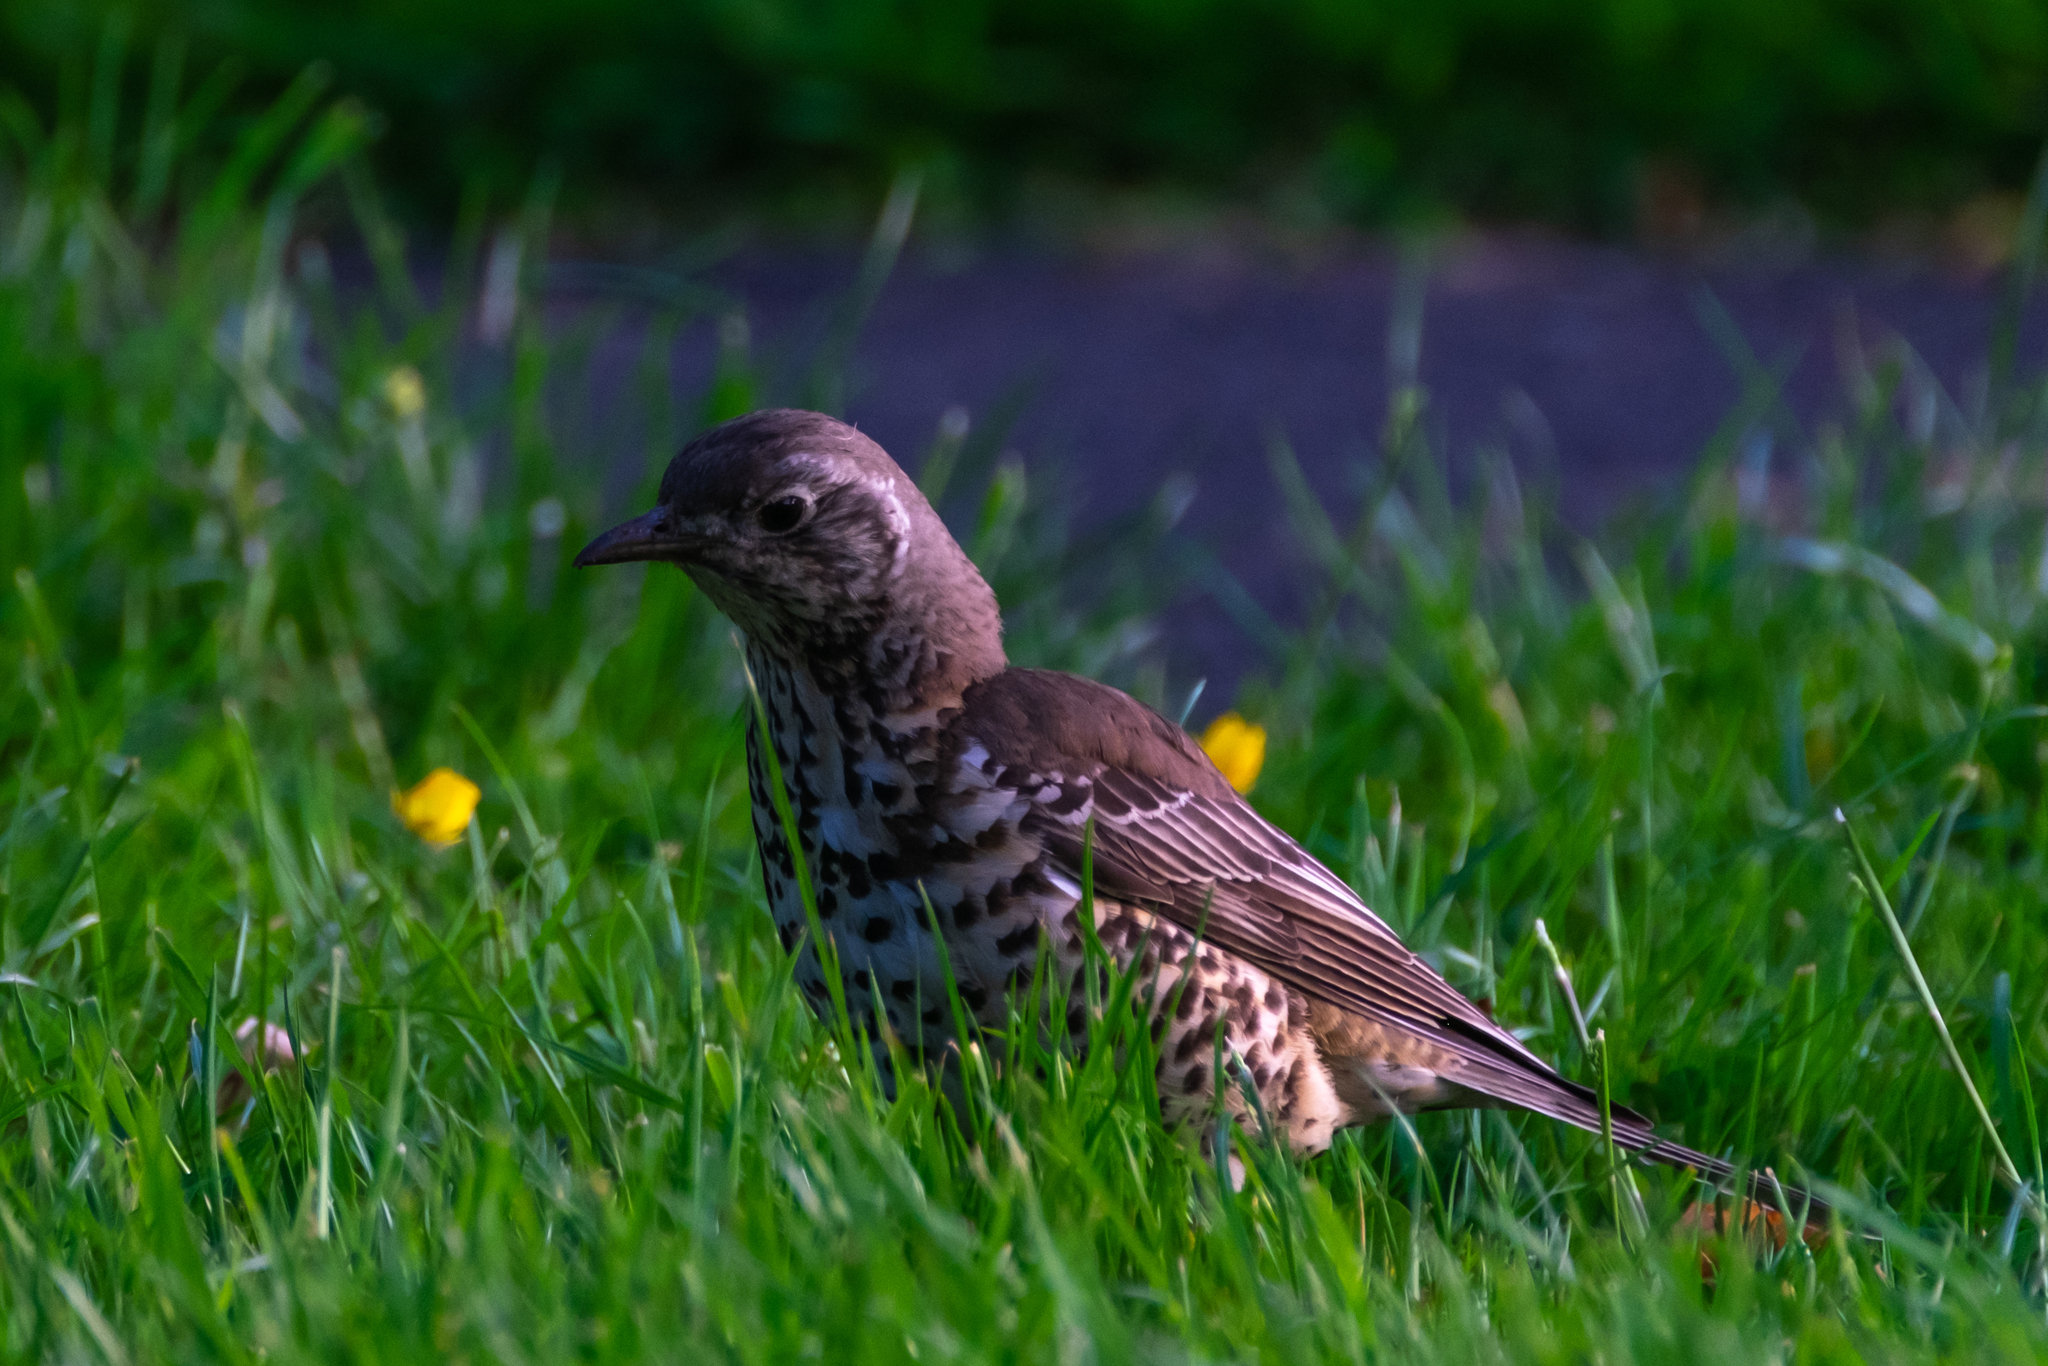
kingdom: Animalia
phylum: Chordata
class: Aves
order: Passeriformes
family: Turdidae
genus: Turdus
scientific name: Turdus viscivorus
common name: Mistle thrush
